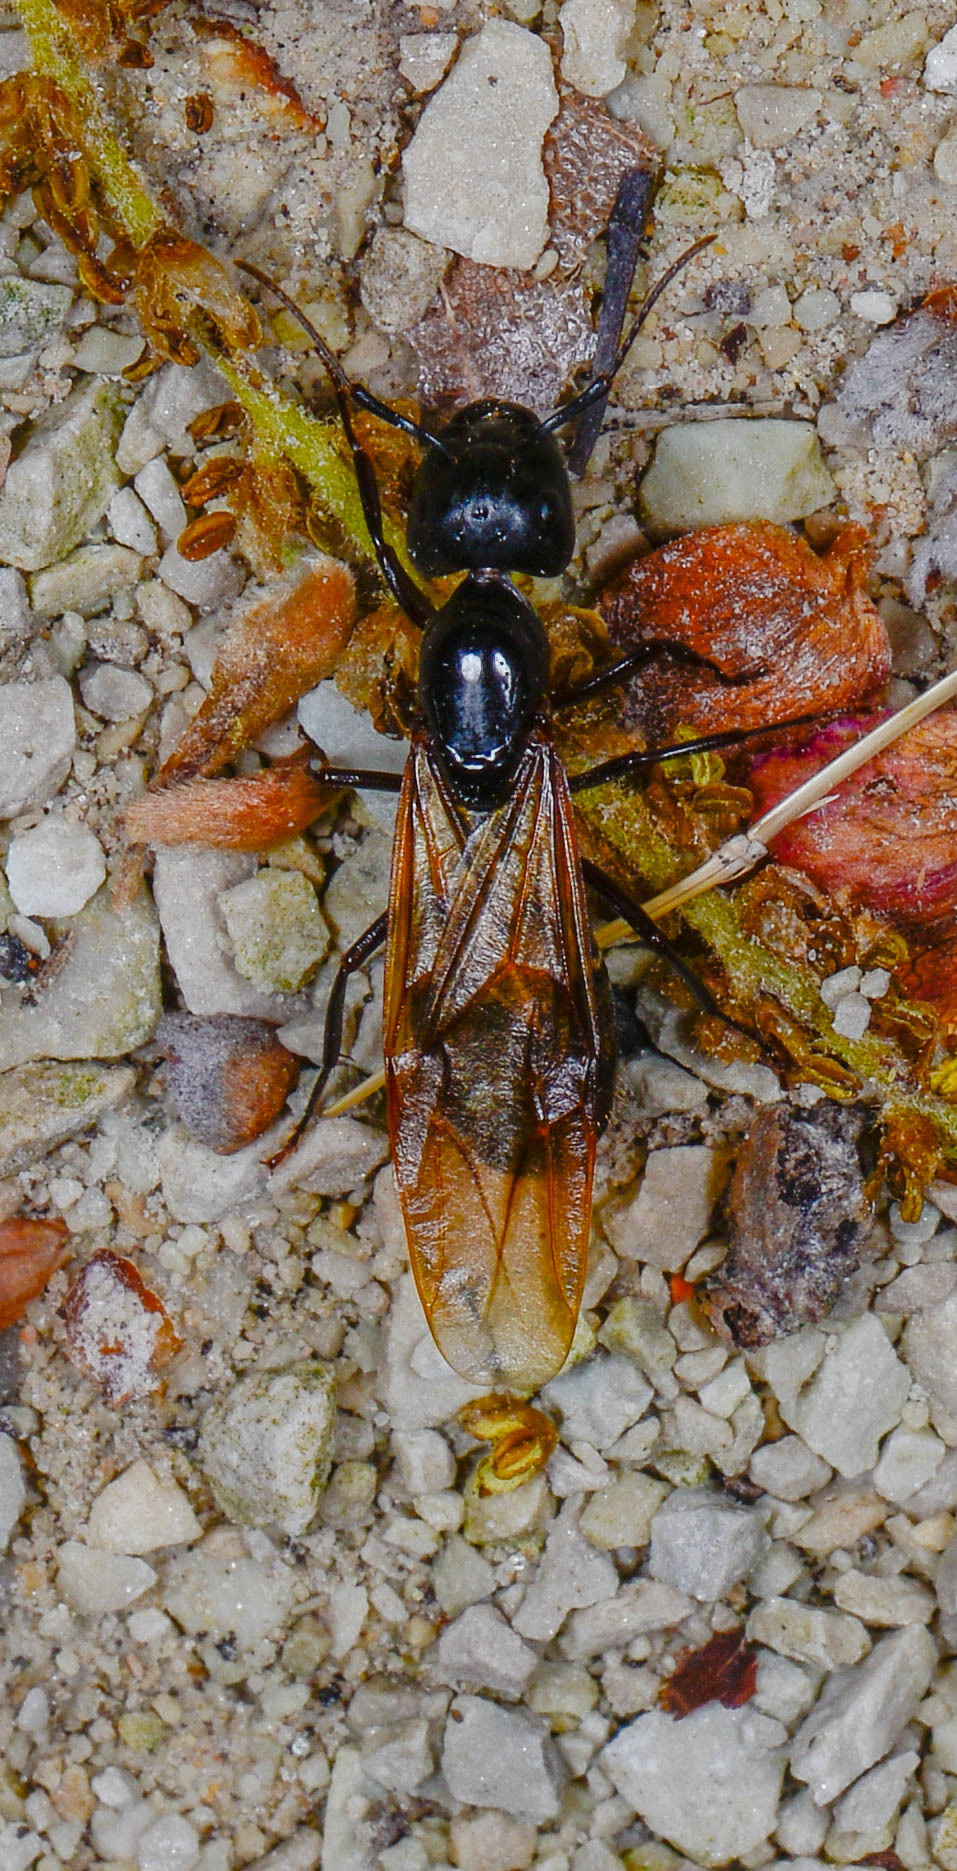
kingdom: Animalia
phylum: Arthropoda
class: Insecta
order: Hymenoptera
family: Formicidae
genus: Camponotus
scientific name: Camponotus pennsylvanicus
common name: Black carpenter ant
